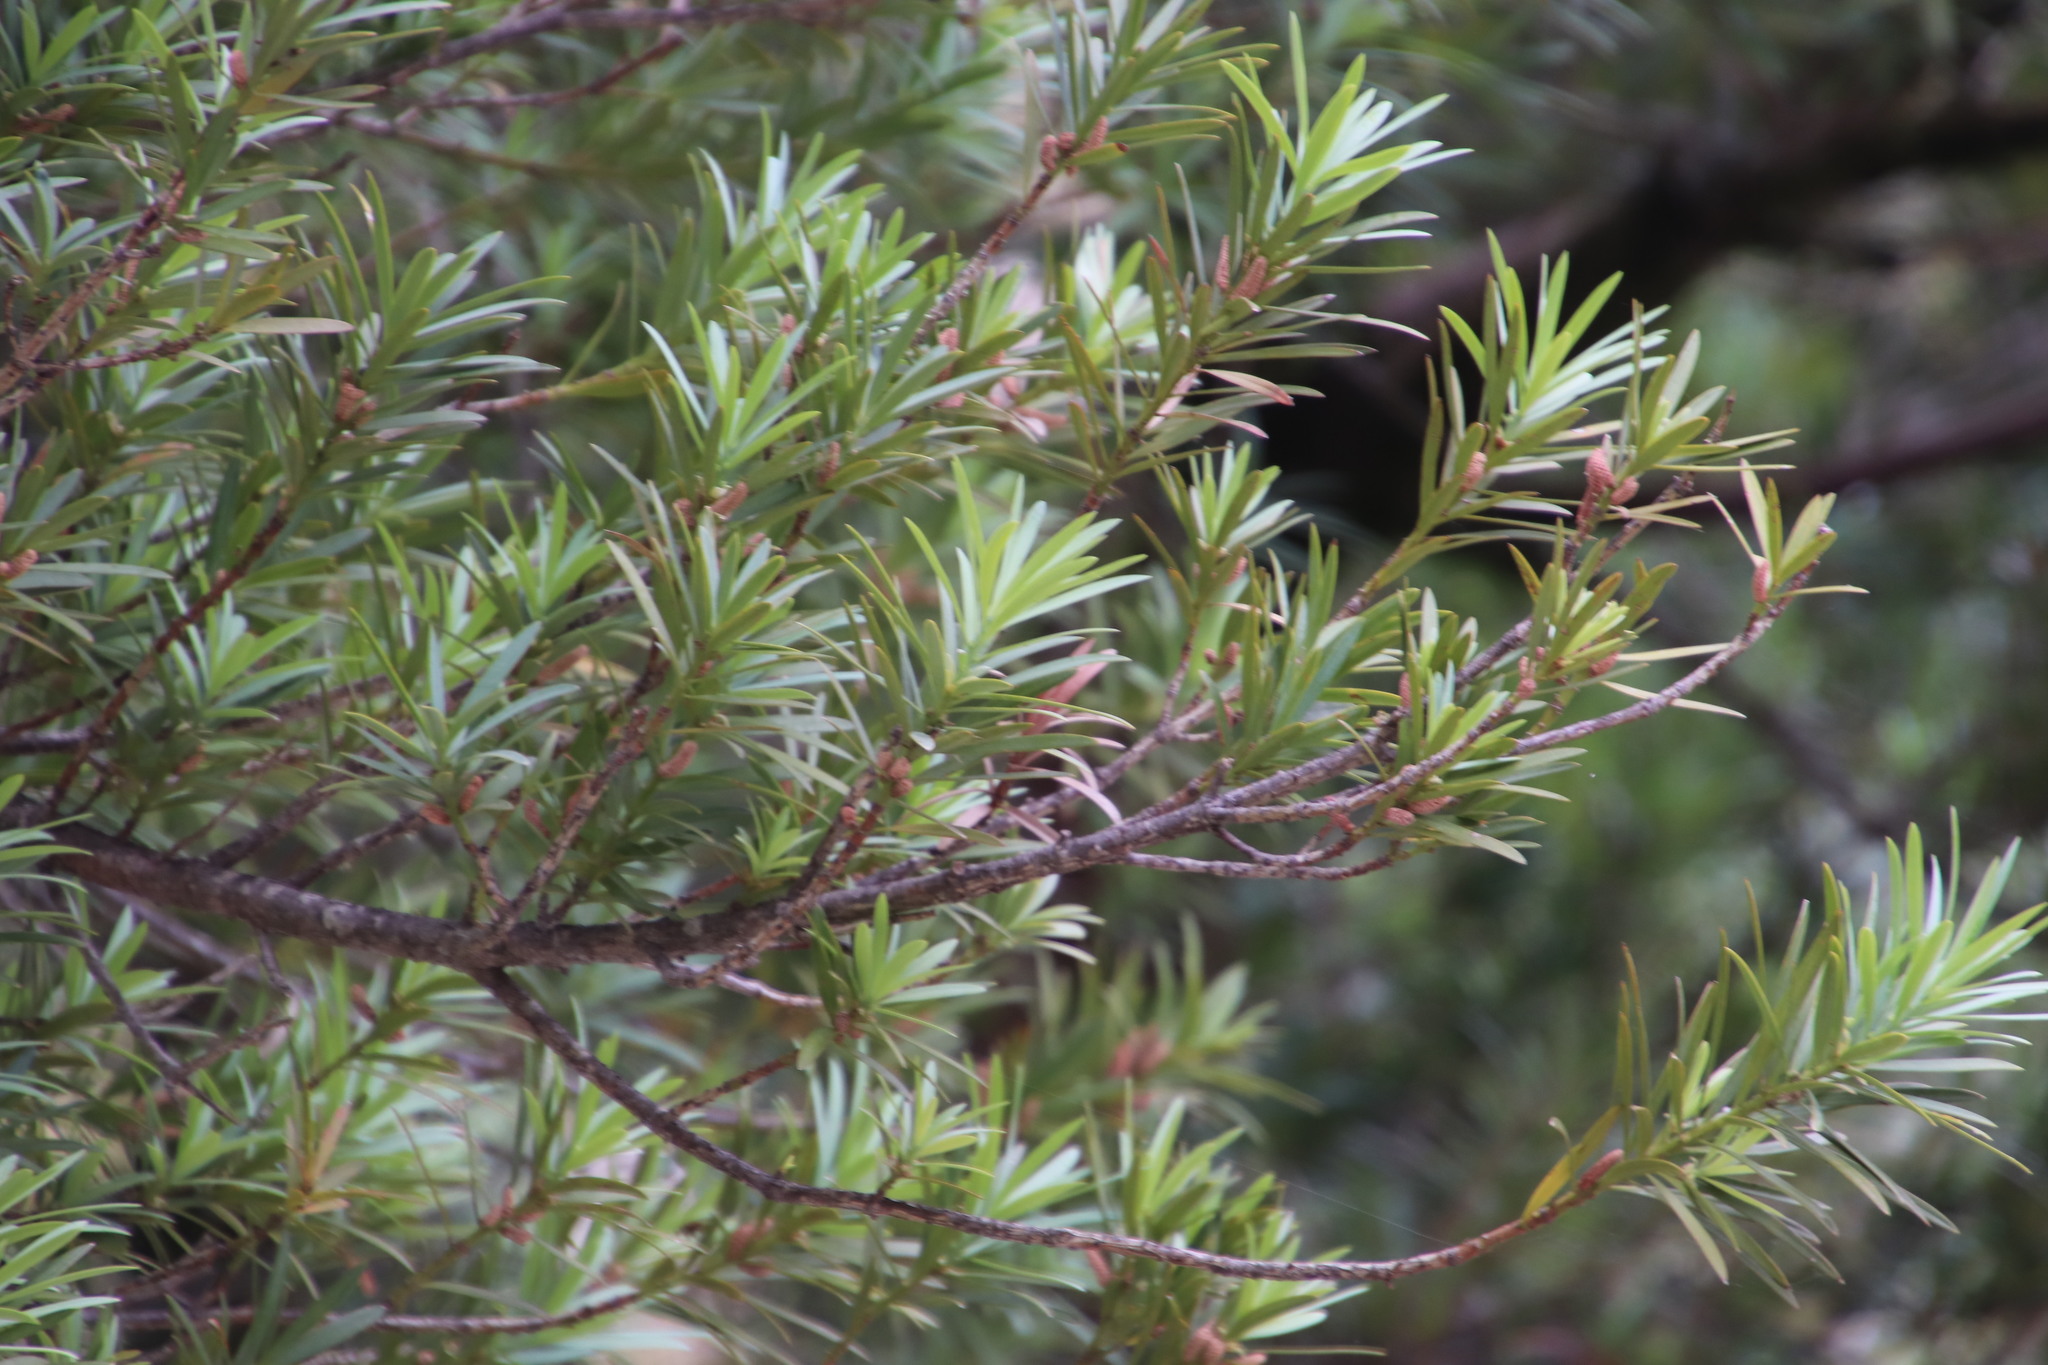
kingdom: Plantae
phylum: Tracheophyta
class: Pinopsida
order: Pinales
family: Podocarpaceae
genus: Podocarpus
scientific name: Podocarpus elongatus
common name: Breede river yellowwood
